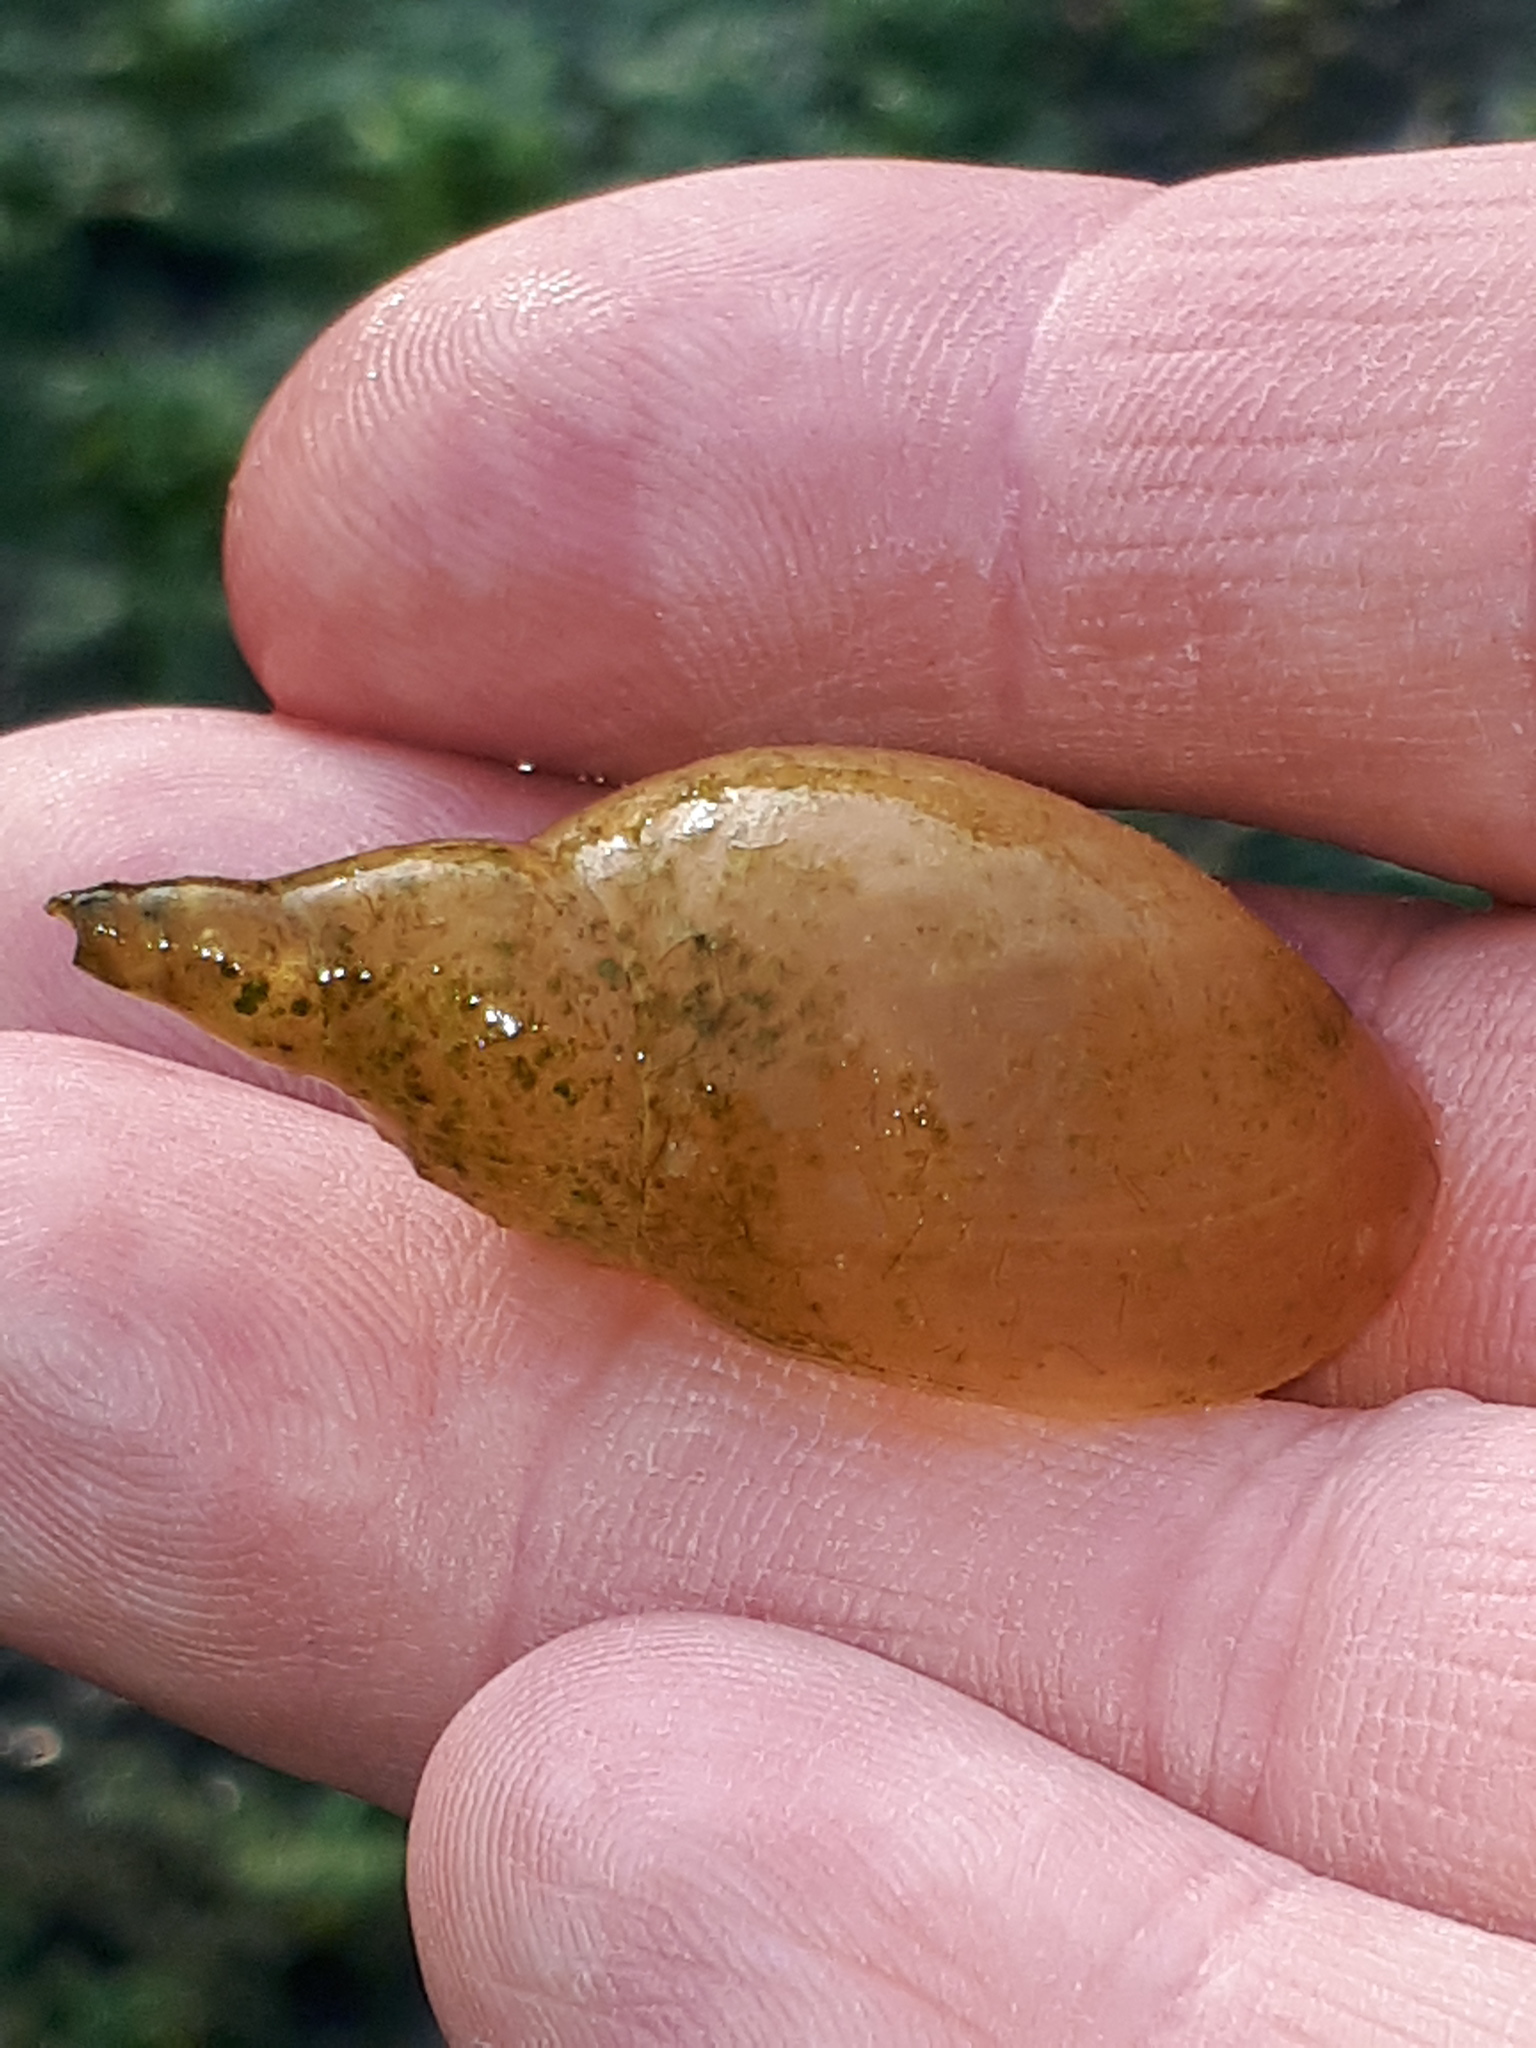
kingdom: Animalia
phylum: Mollusca
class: Gastropoda
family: Lymnaeidae
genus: Lymnaea
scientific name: Lymnaea stagnalis
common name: Great pond snail
